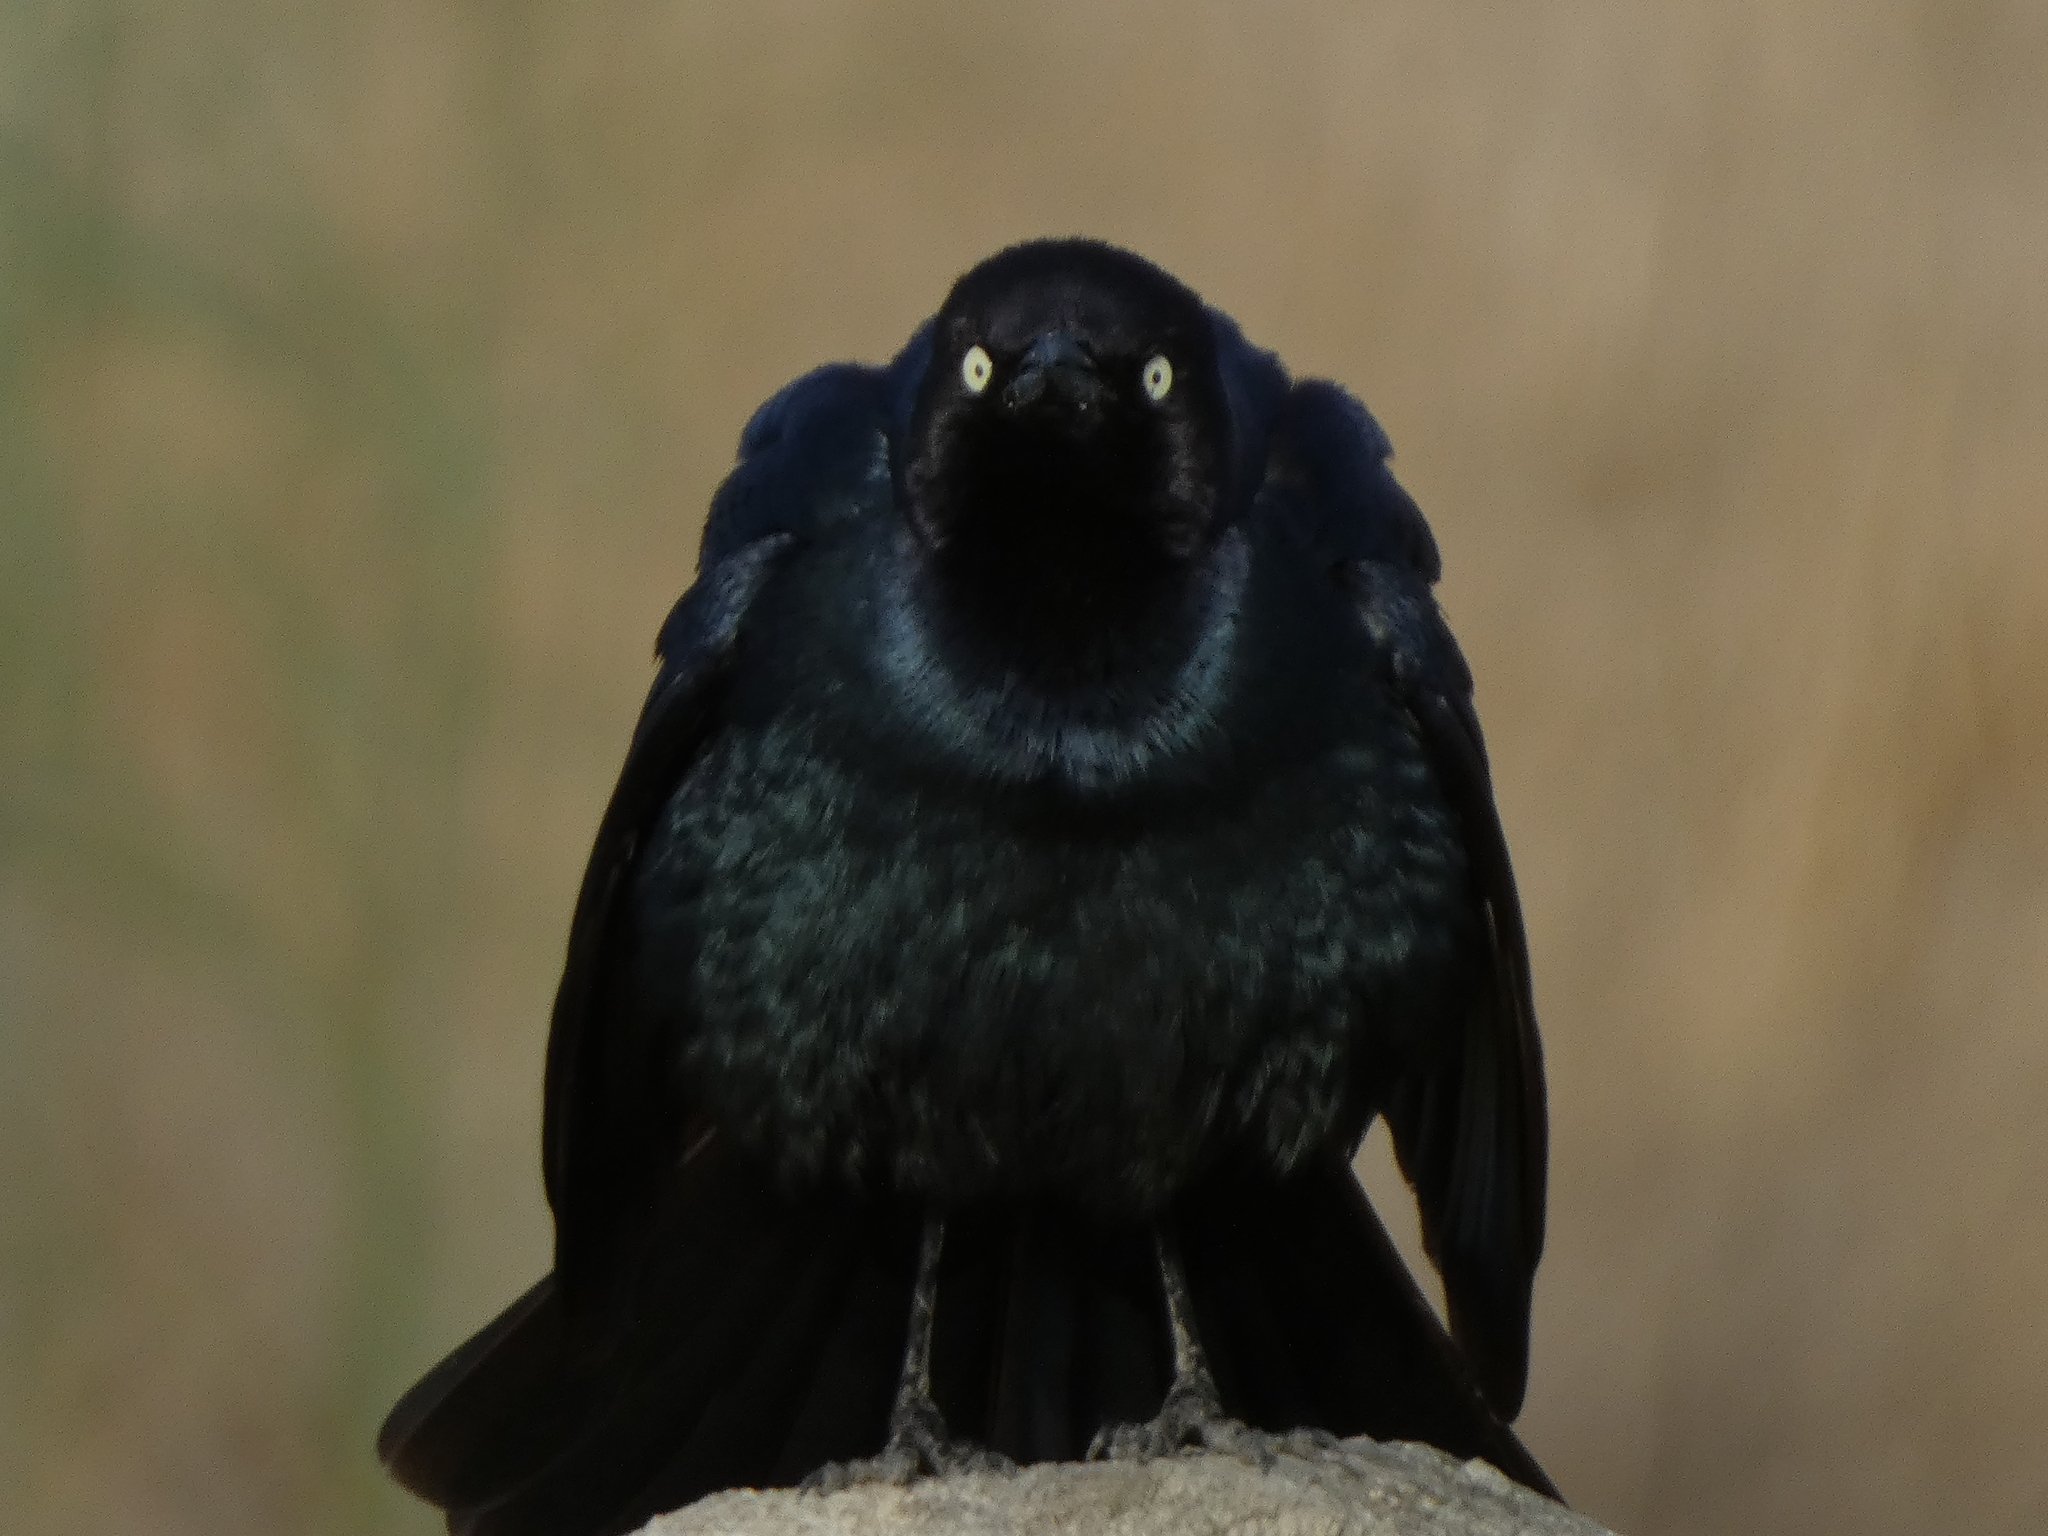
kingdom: Animalia
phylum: Chordata
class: Aves
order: Passeriformes
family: Icteridae
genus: Euphagus
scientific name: Euphagus cyanocephalus
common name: Brewer's blackbird
